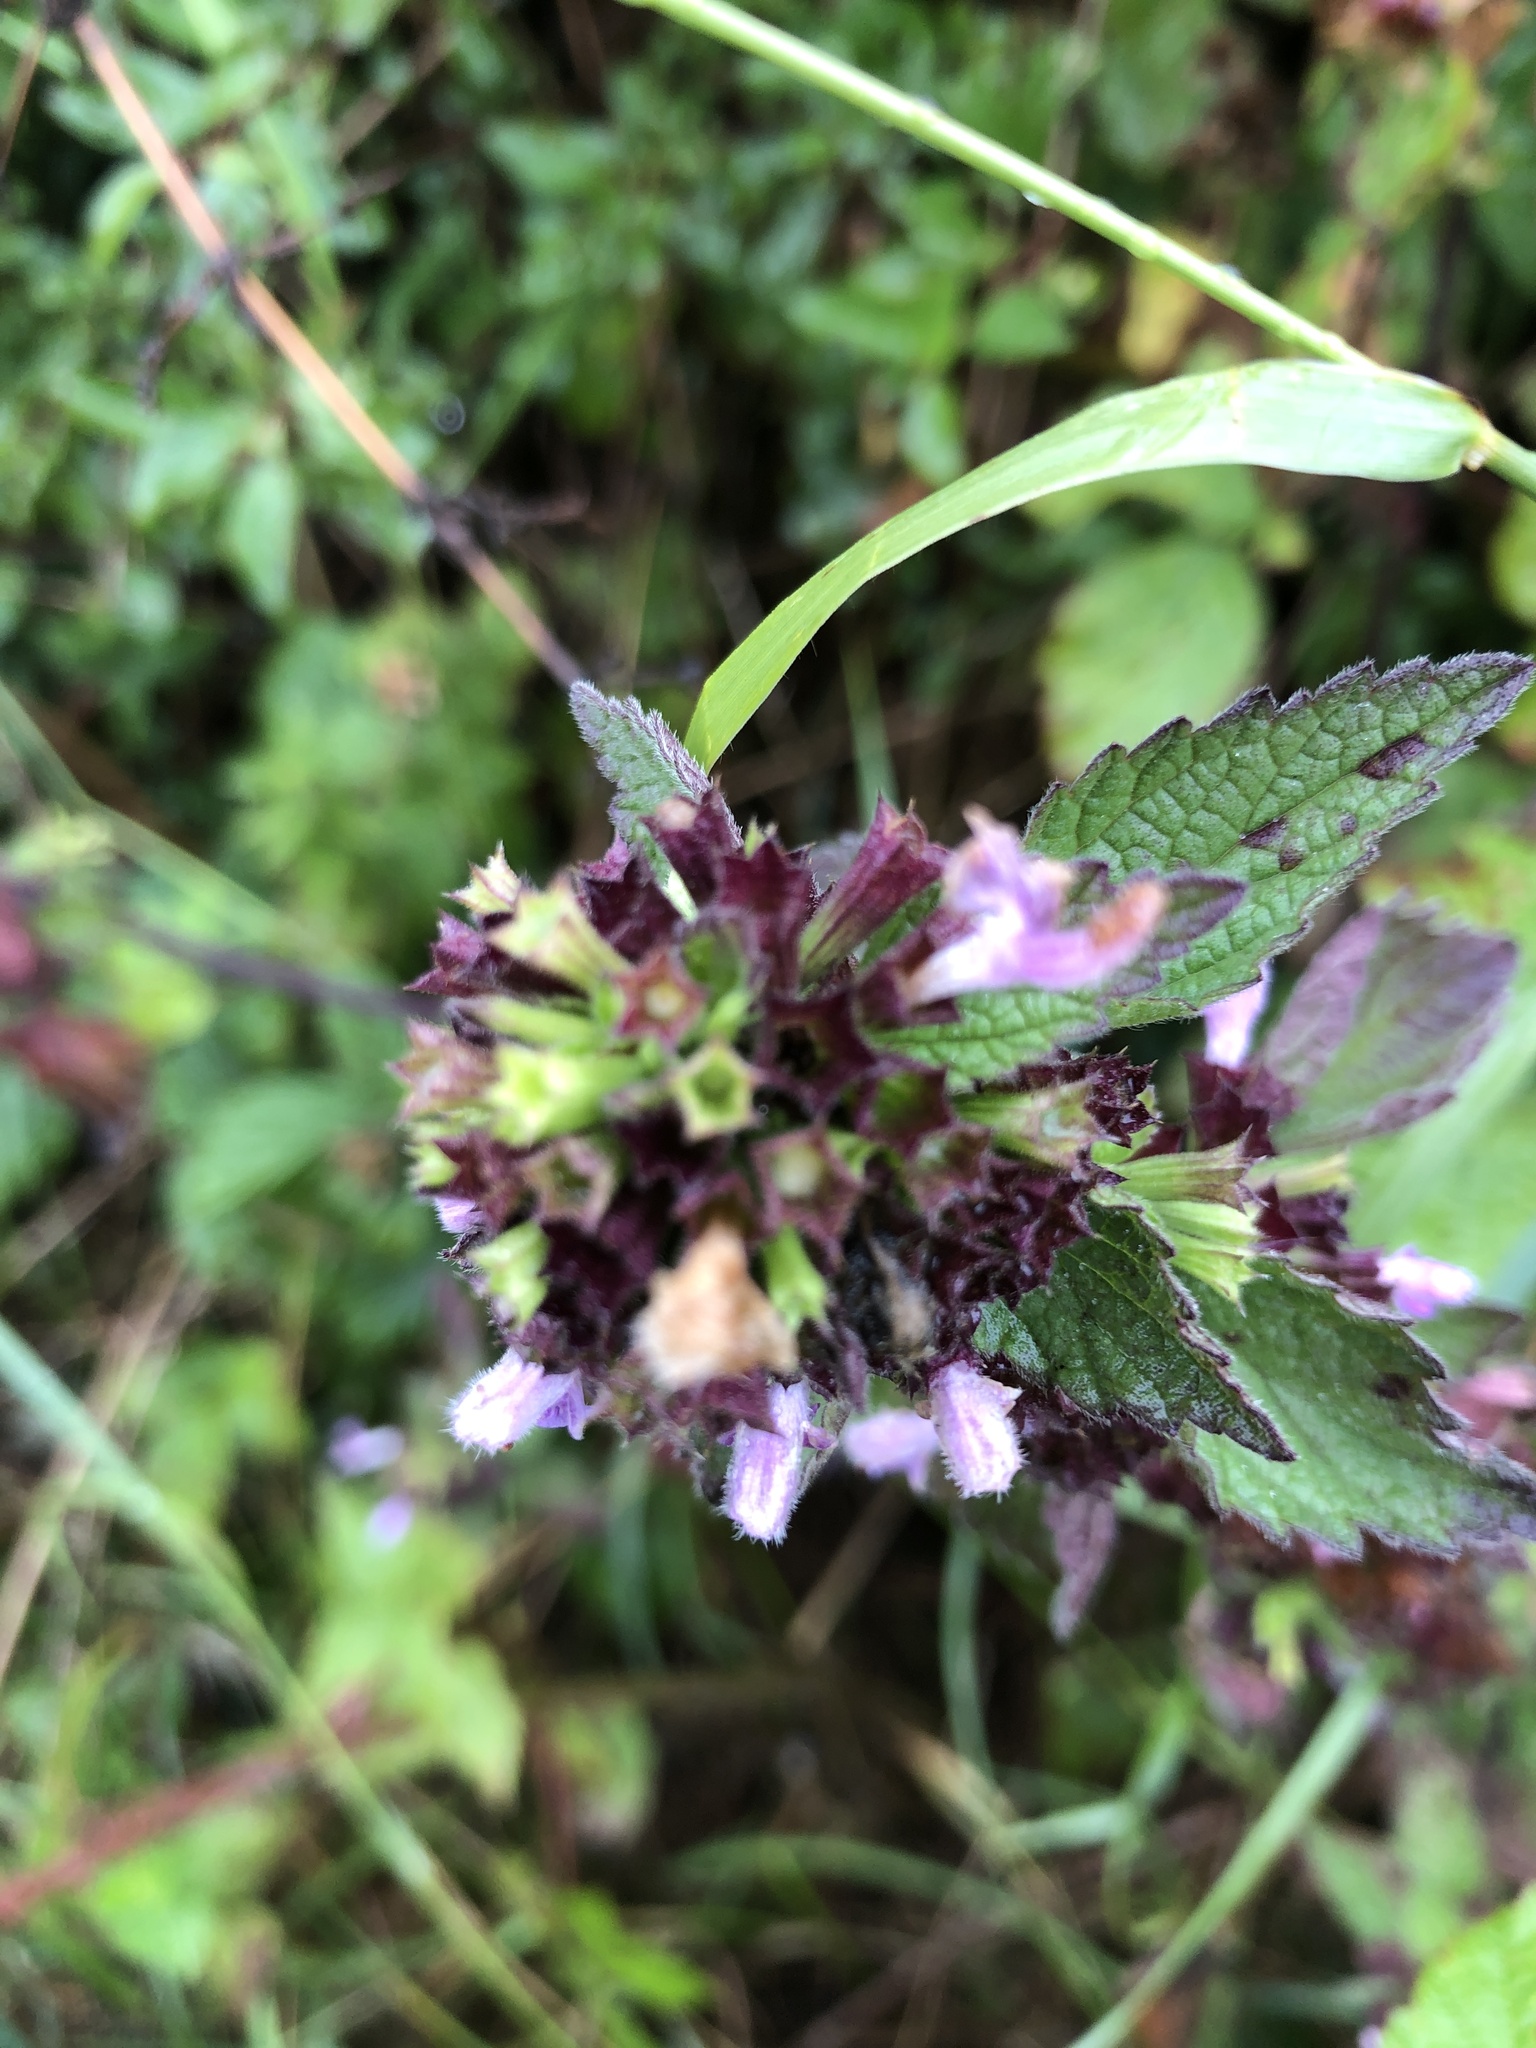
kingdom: Plantae
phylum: Tracheophyta
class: Magnoliopsida
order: Lamiales
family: Lamiaceae
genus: Ballota
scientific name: Ballota nigra
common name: Black horehound
